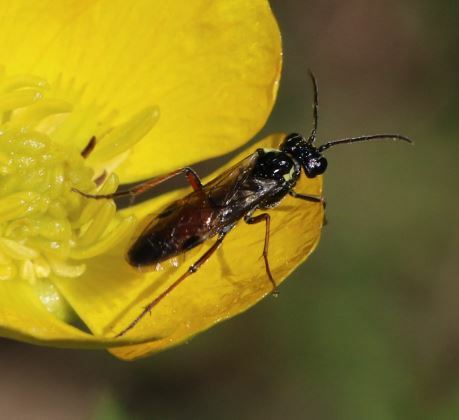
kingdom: Animalia
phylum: Arthropoda
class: Insecta
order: Hymenoptera
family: Tenthredinidae
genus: Aglaostigma
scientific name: Aglaostigma aucupariae
